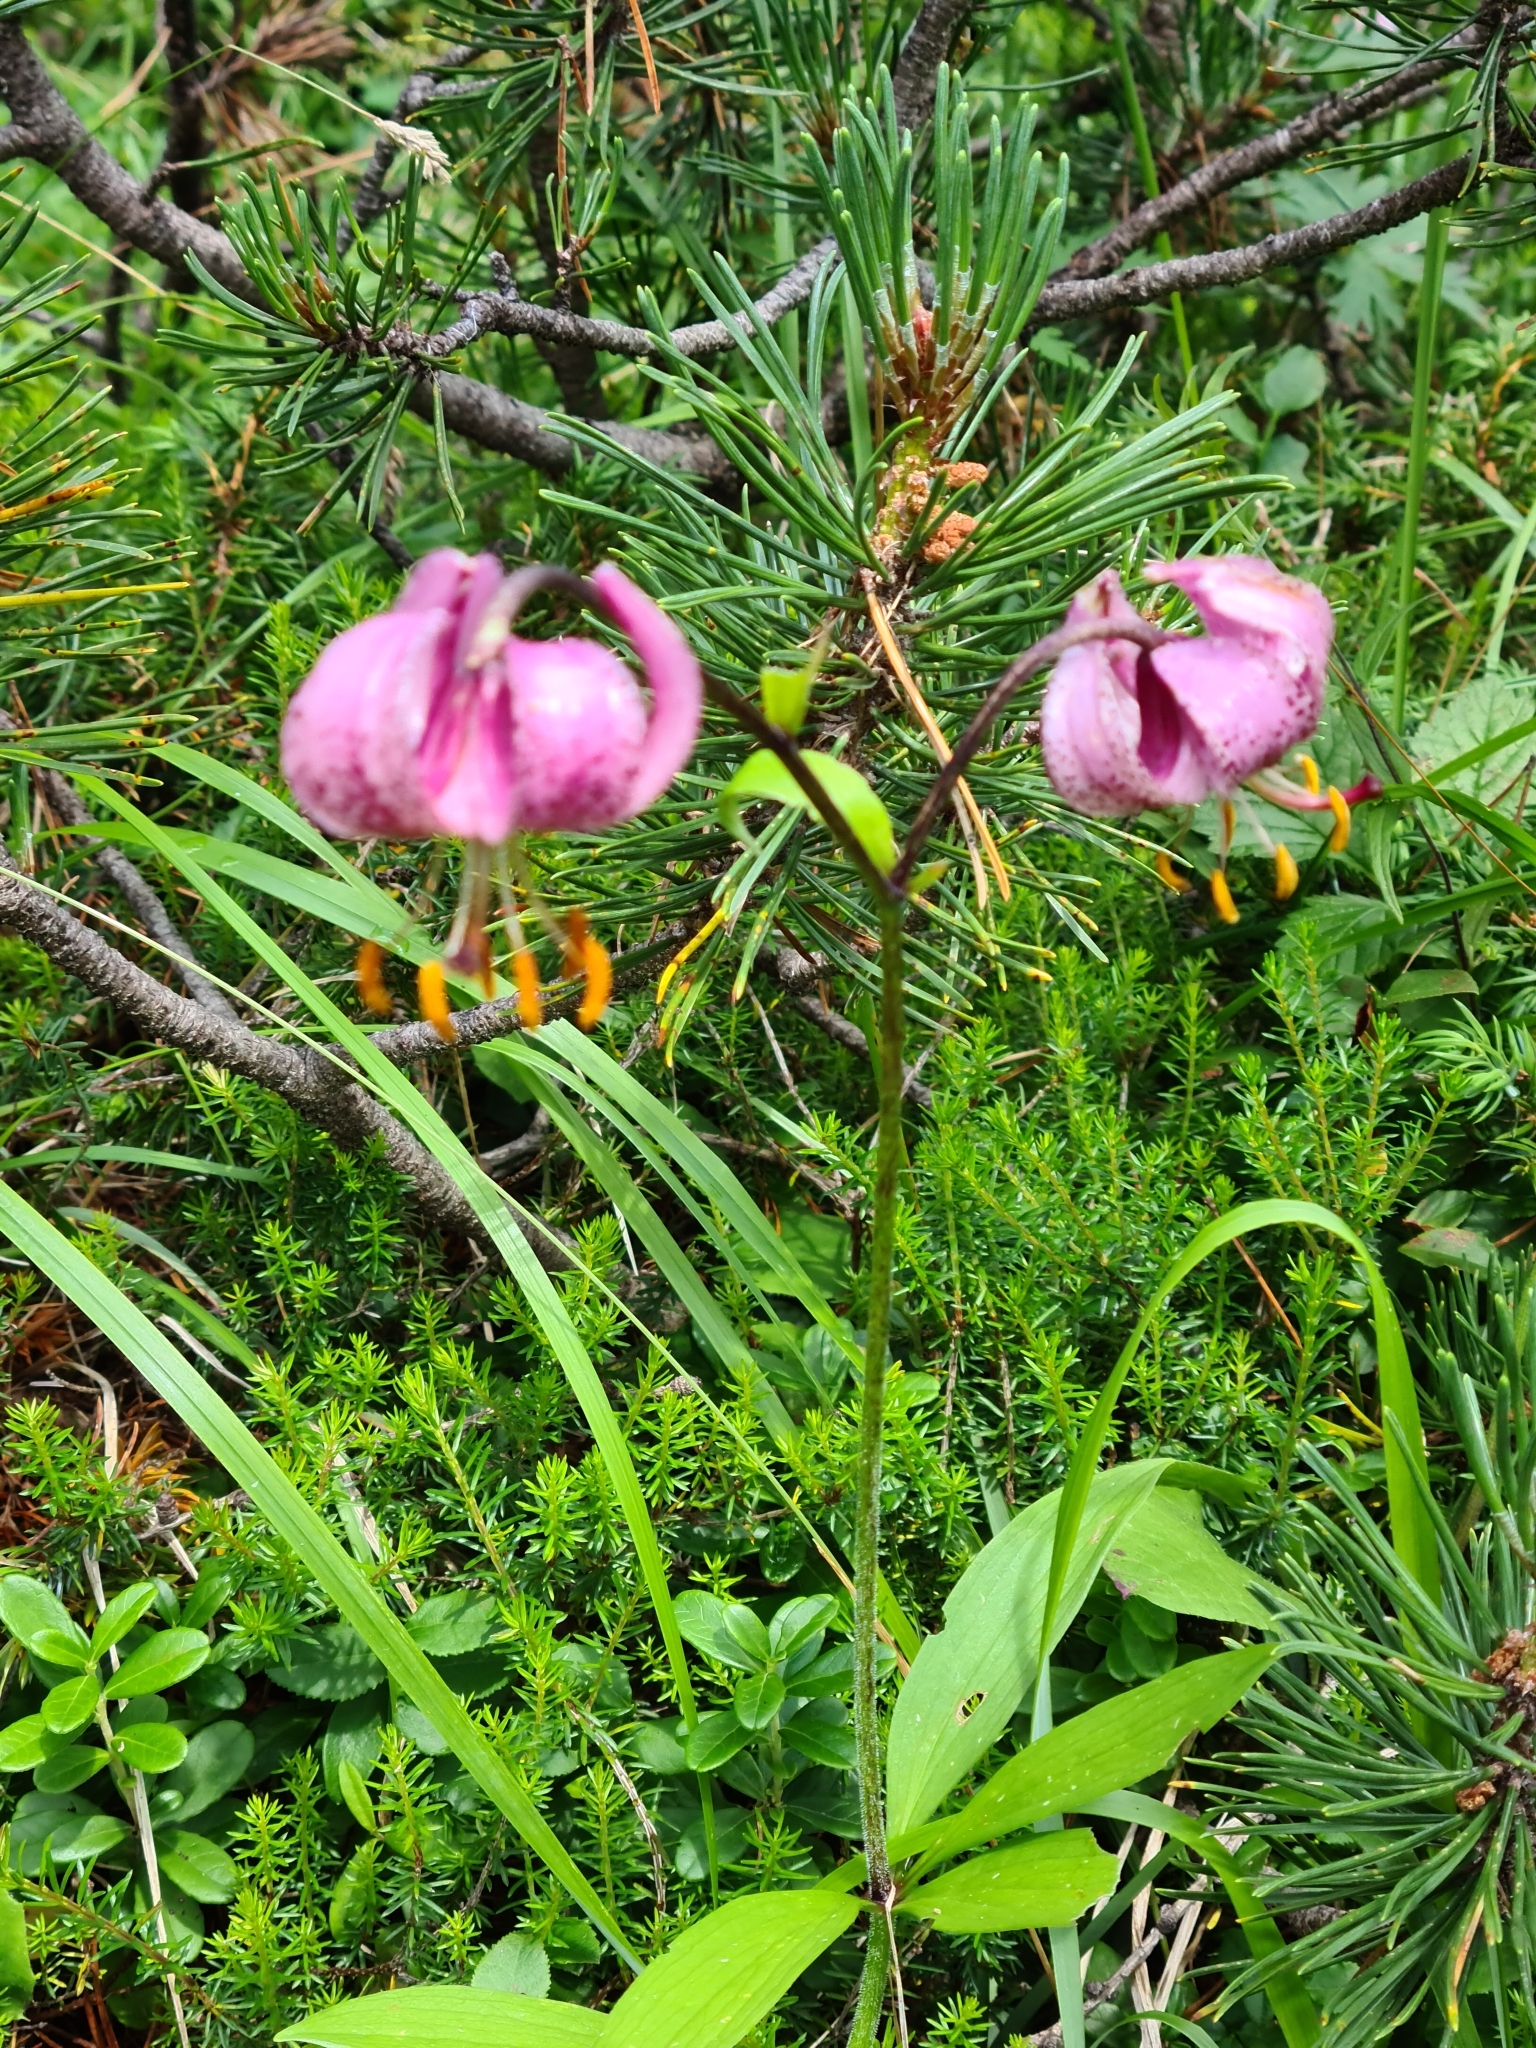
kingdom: Plantae
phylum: Tracheophyta
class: Liliopsida
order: Liliales
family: Liliaceae
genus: Lilium
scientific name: Lilium martagon
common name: Martagon lily
